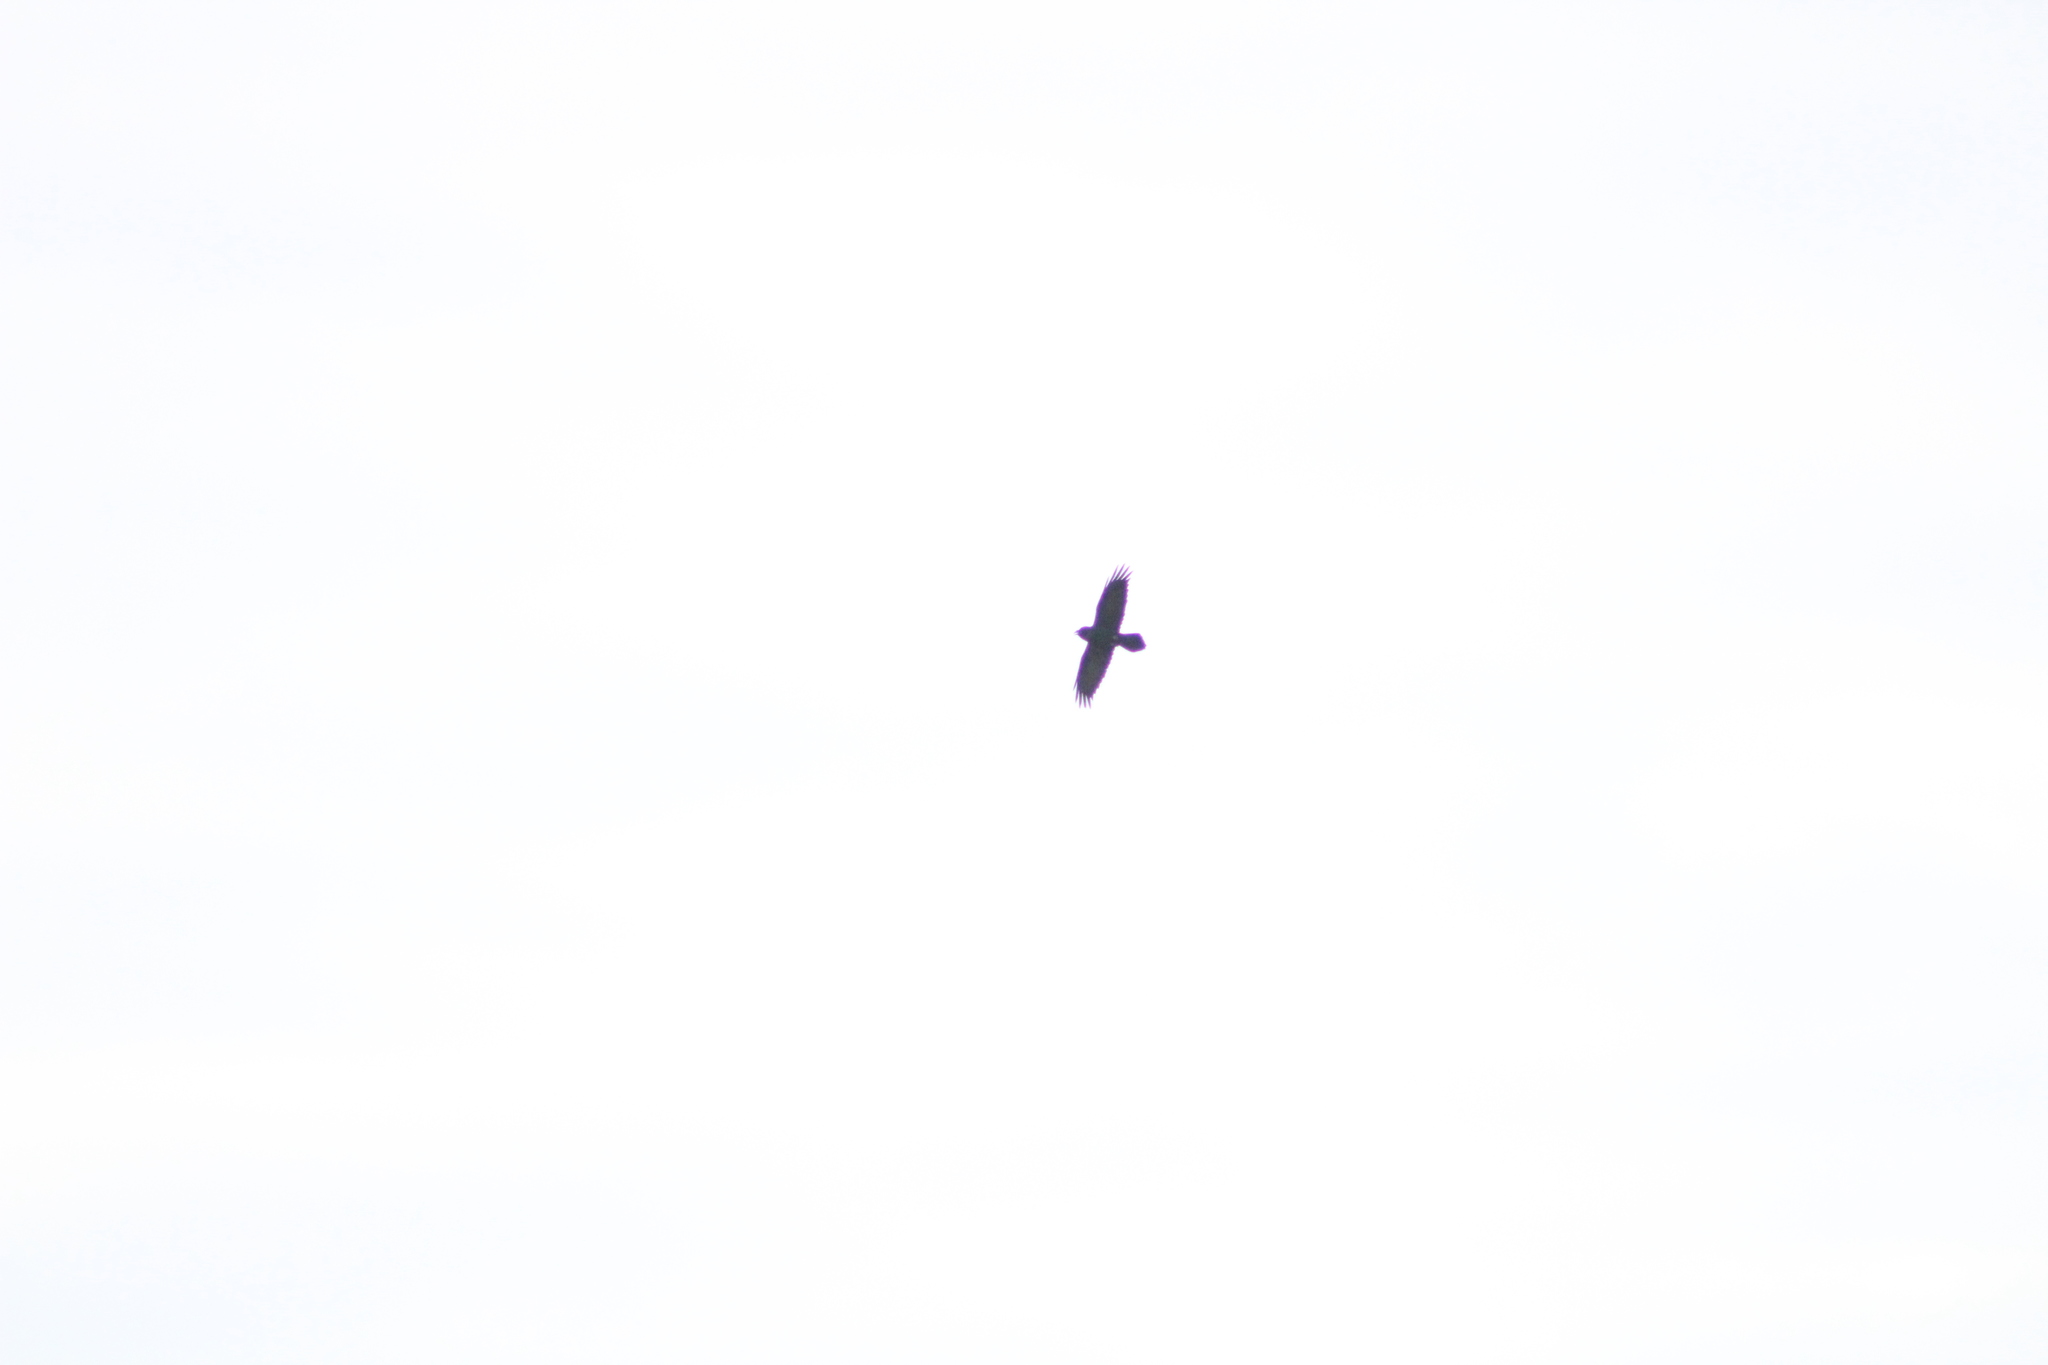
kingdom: Animalia
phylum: Chordata
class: Aves
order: Passeriformes
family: Corvidae
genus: Corvus
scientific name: Corvus corax
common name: Common raven
